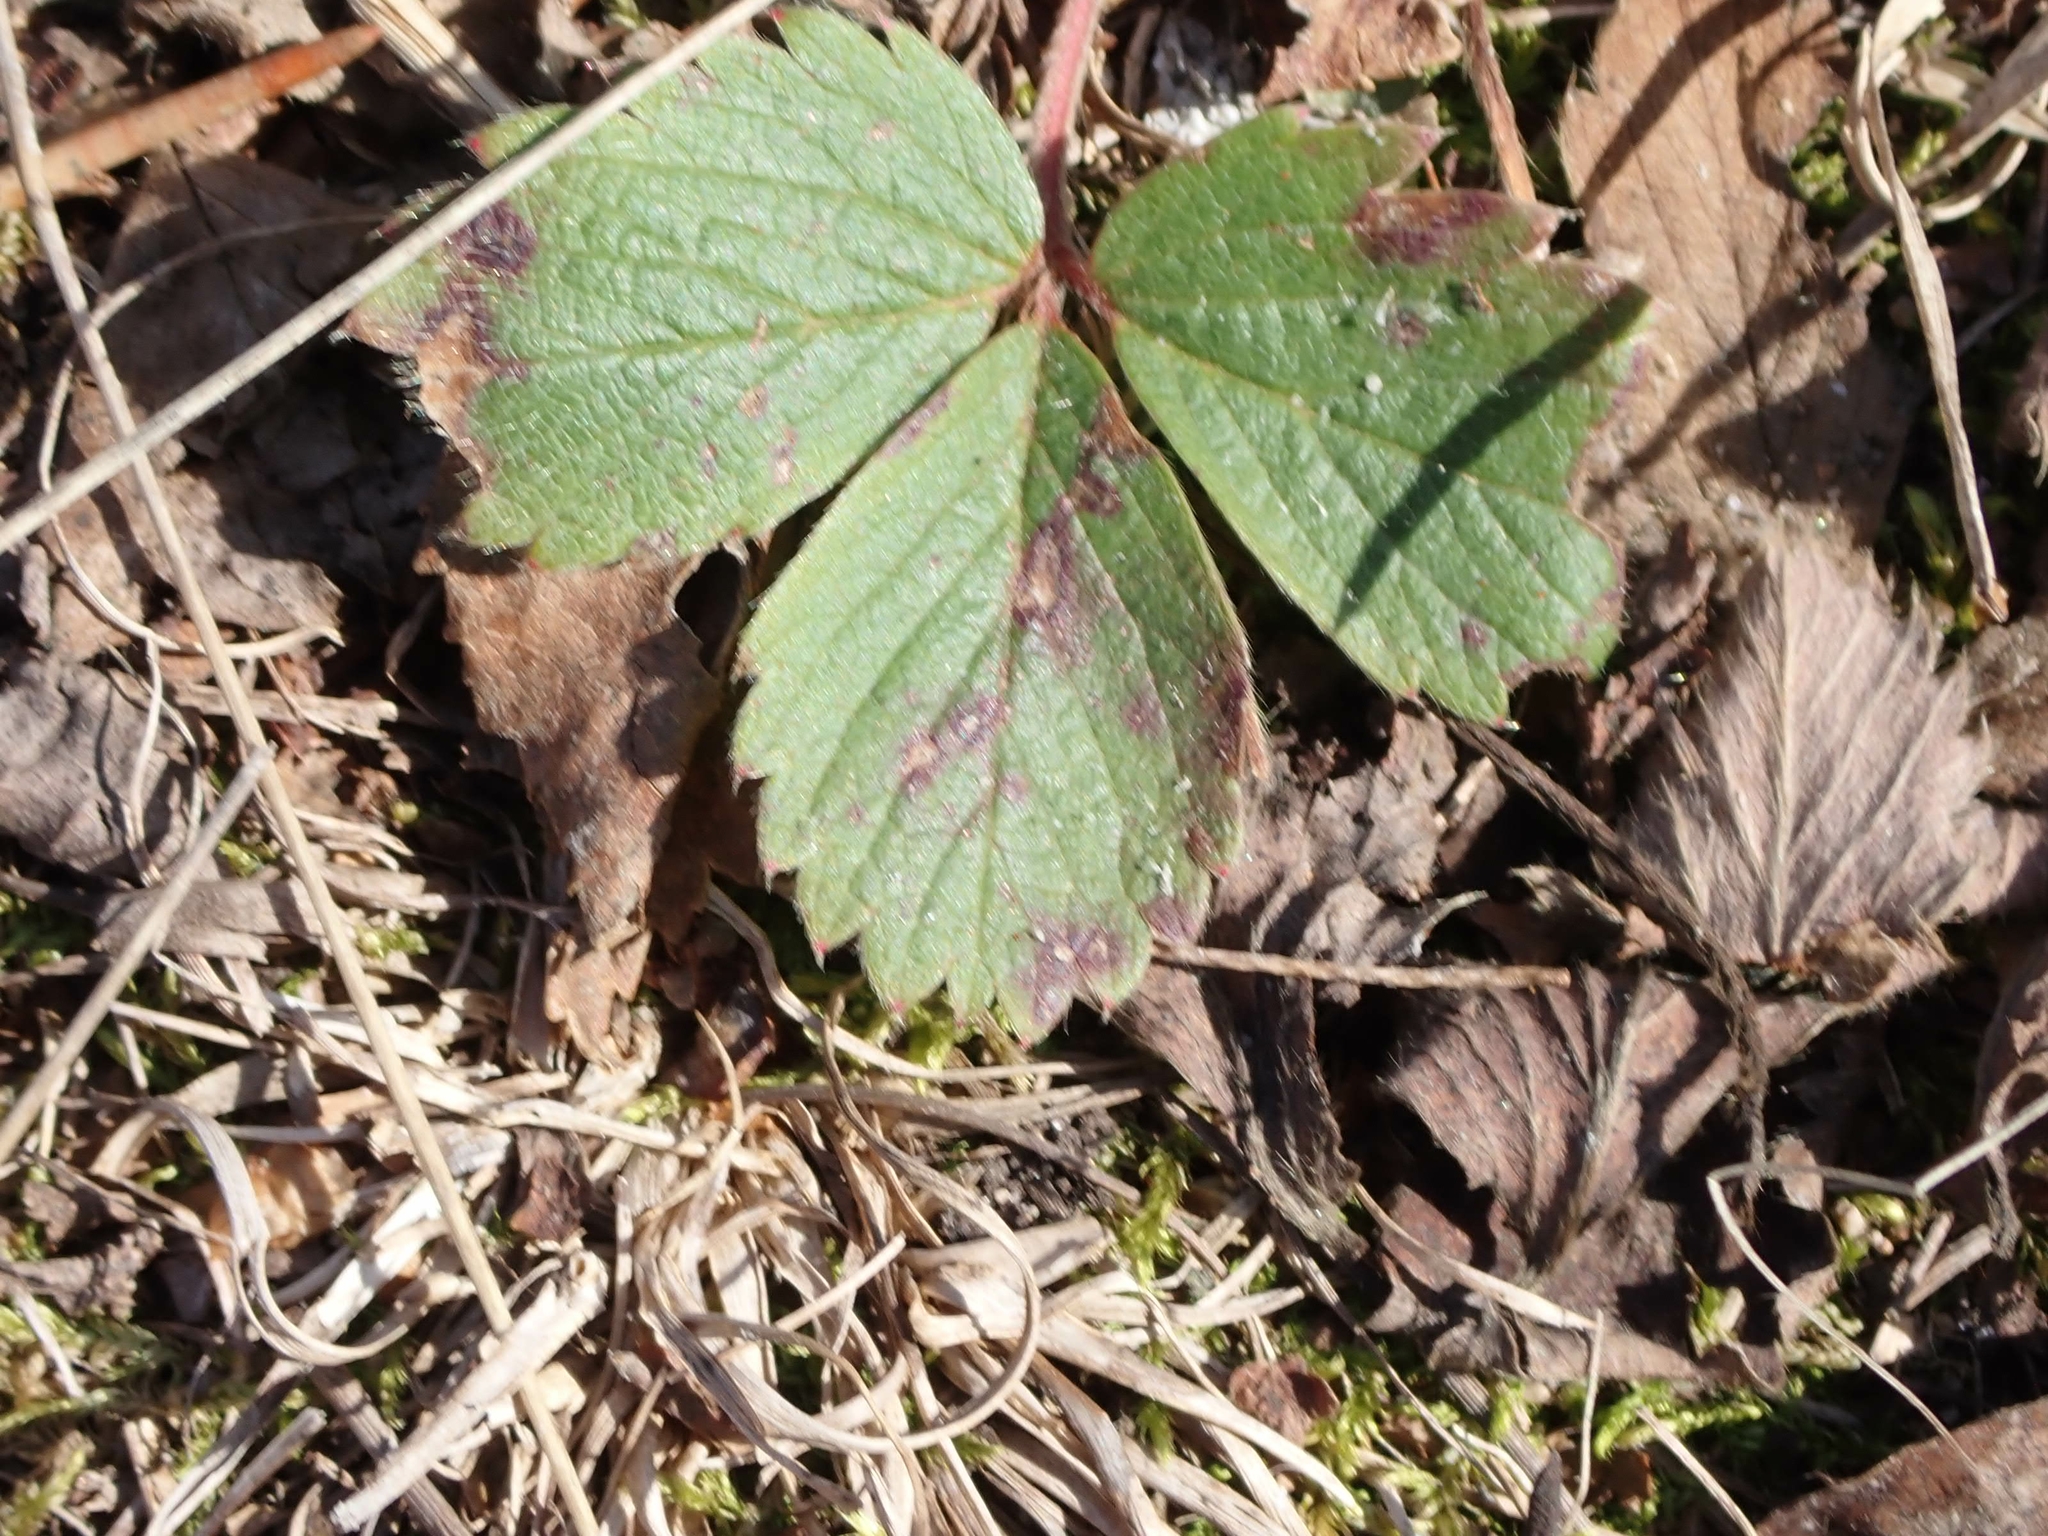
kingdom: Plantae
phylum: Tracheophyta
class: Magnoliopsida
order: Rosales
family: Rosaceae
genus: Fragaria
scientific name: Fragaria virginiana
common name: Thickleaved wild strawberry
